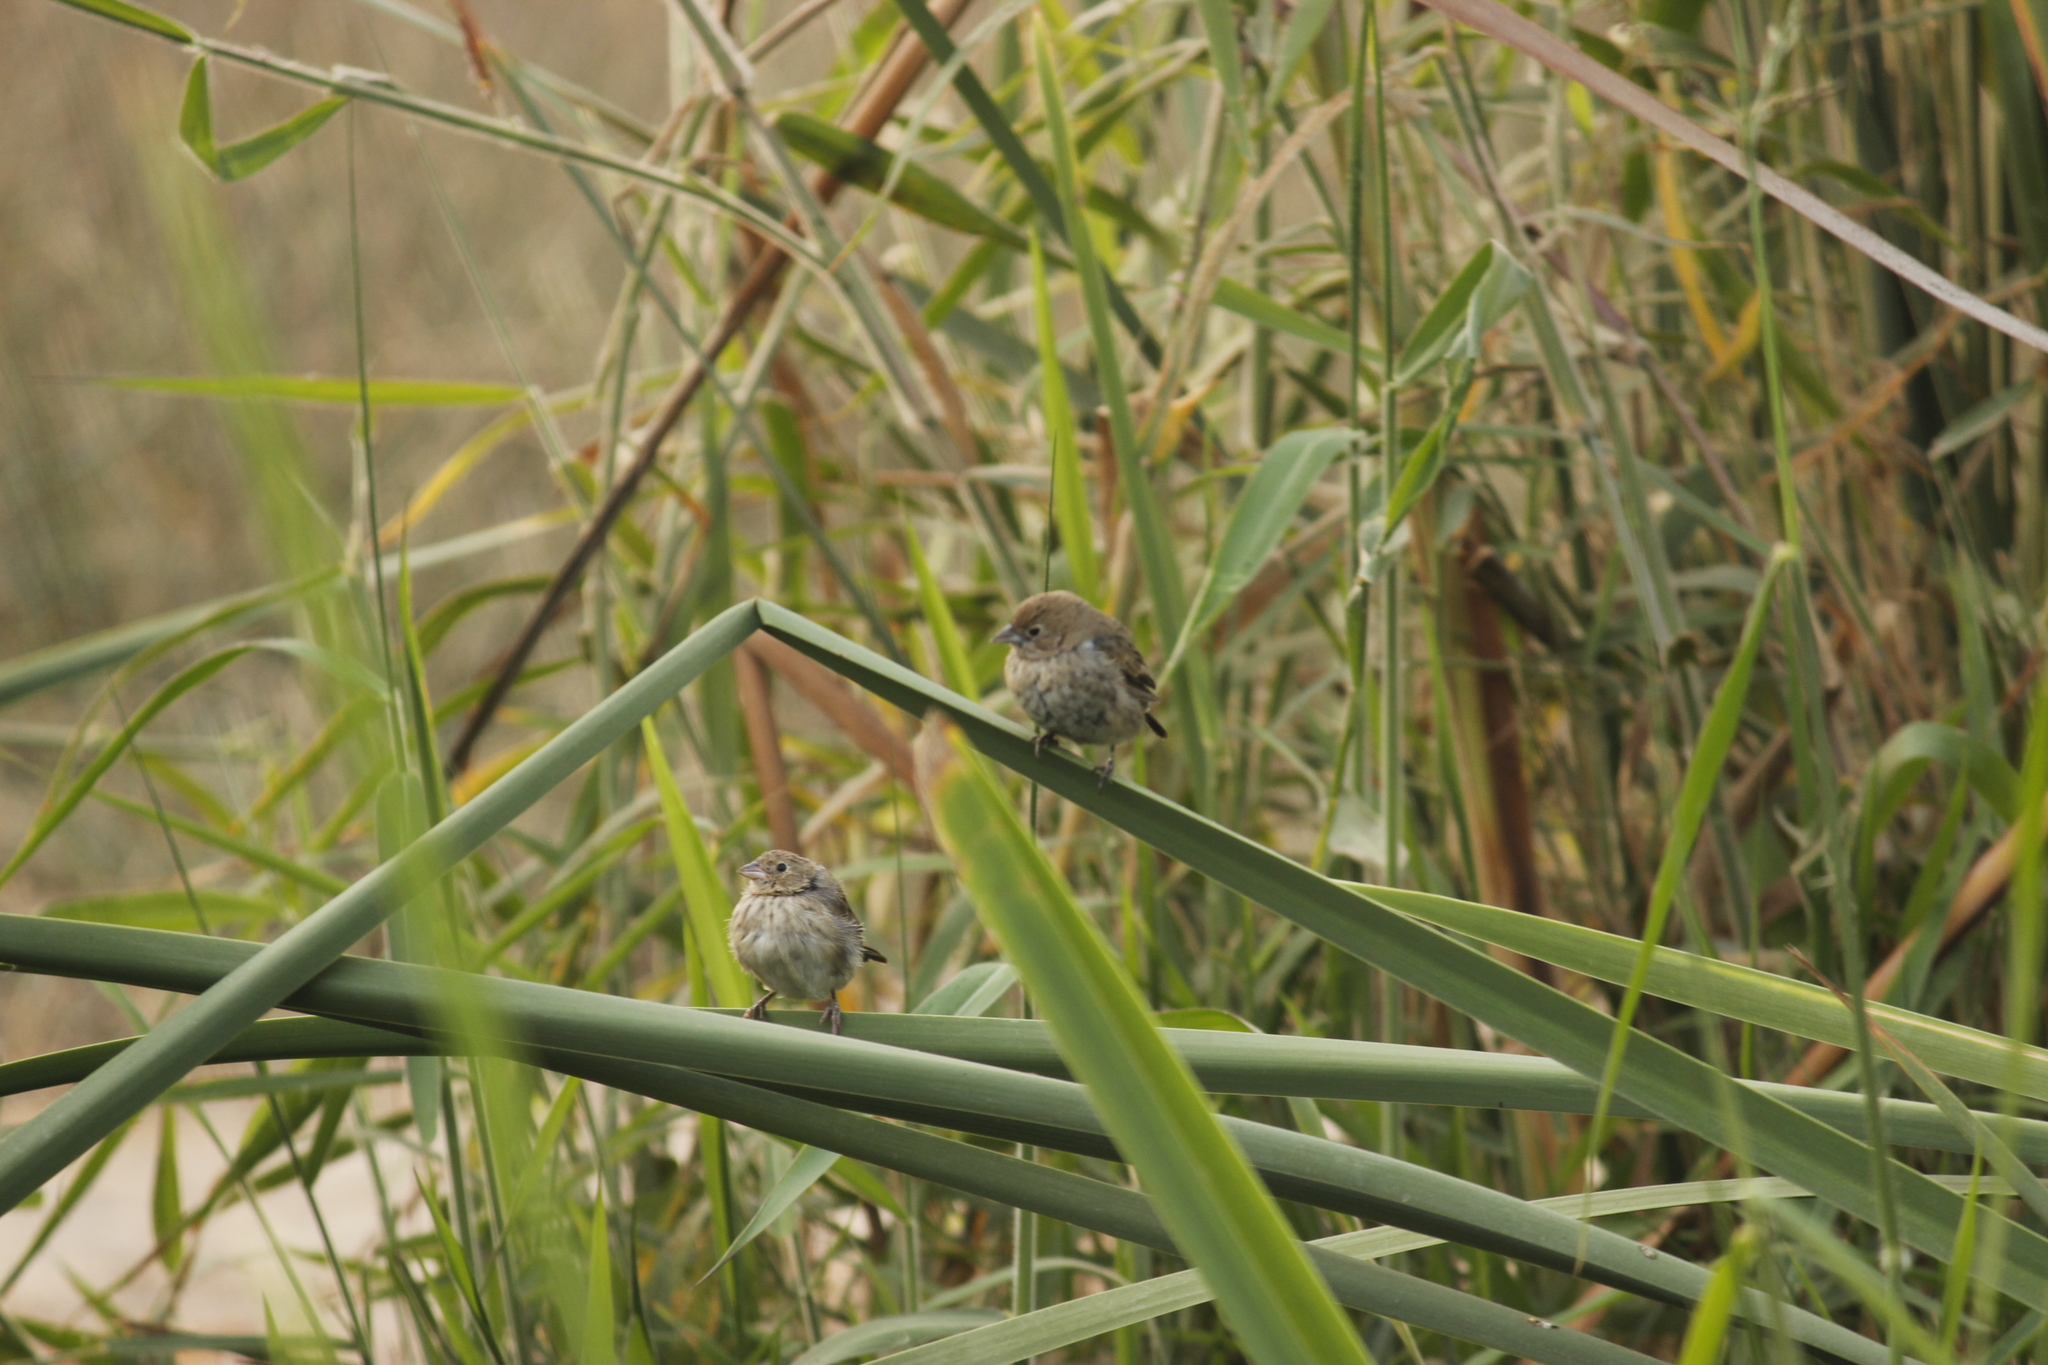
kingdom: Animalia
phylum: Chordata
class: Aves
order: Passeriformes
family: Thraupidae
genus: Volatinia
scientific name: Volatinia jacarina
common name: Blue-black grassquit
